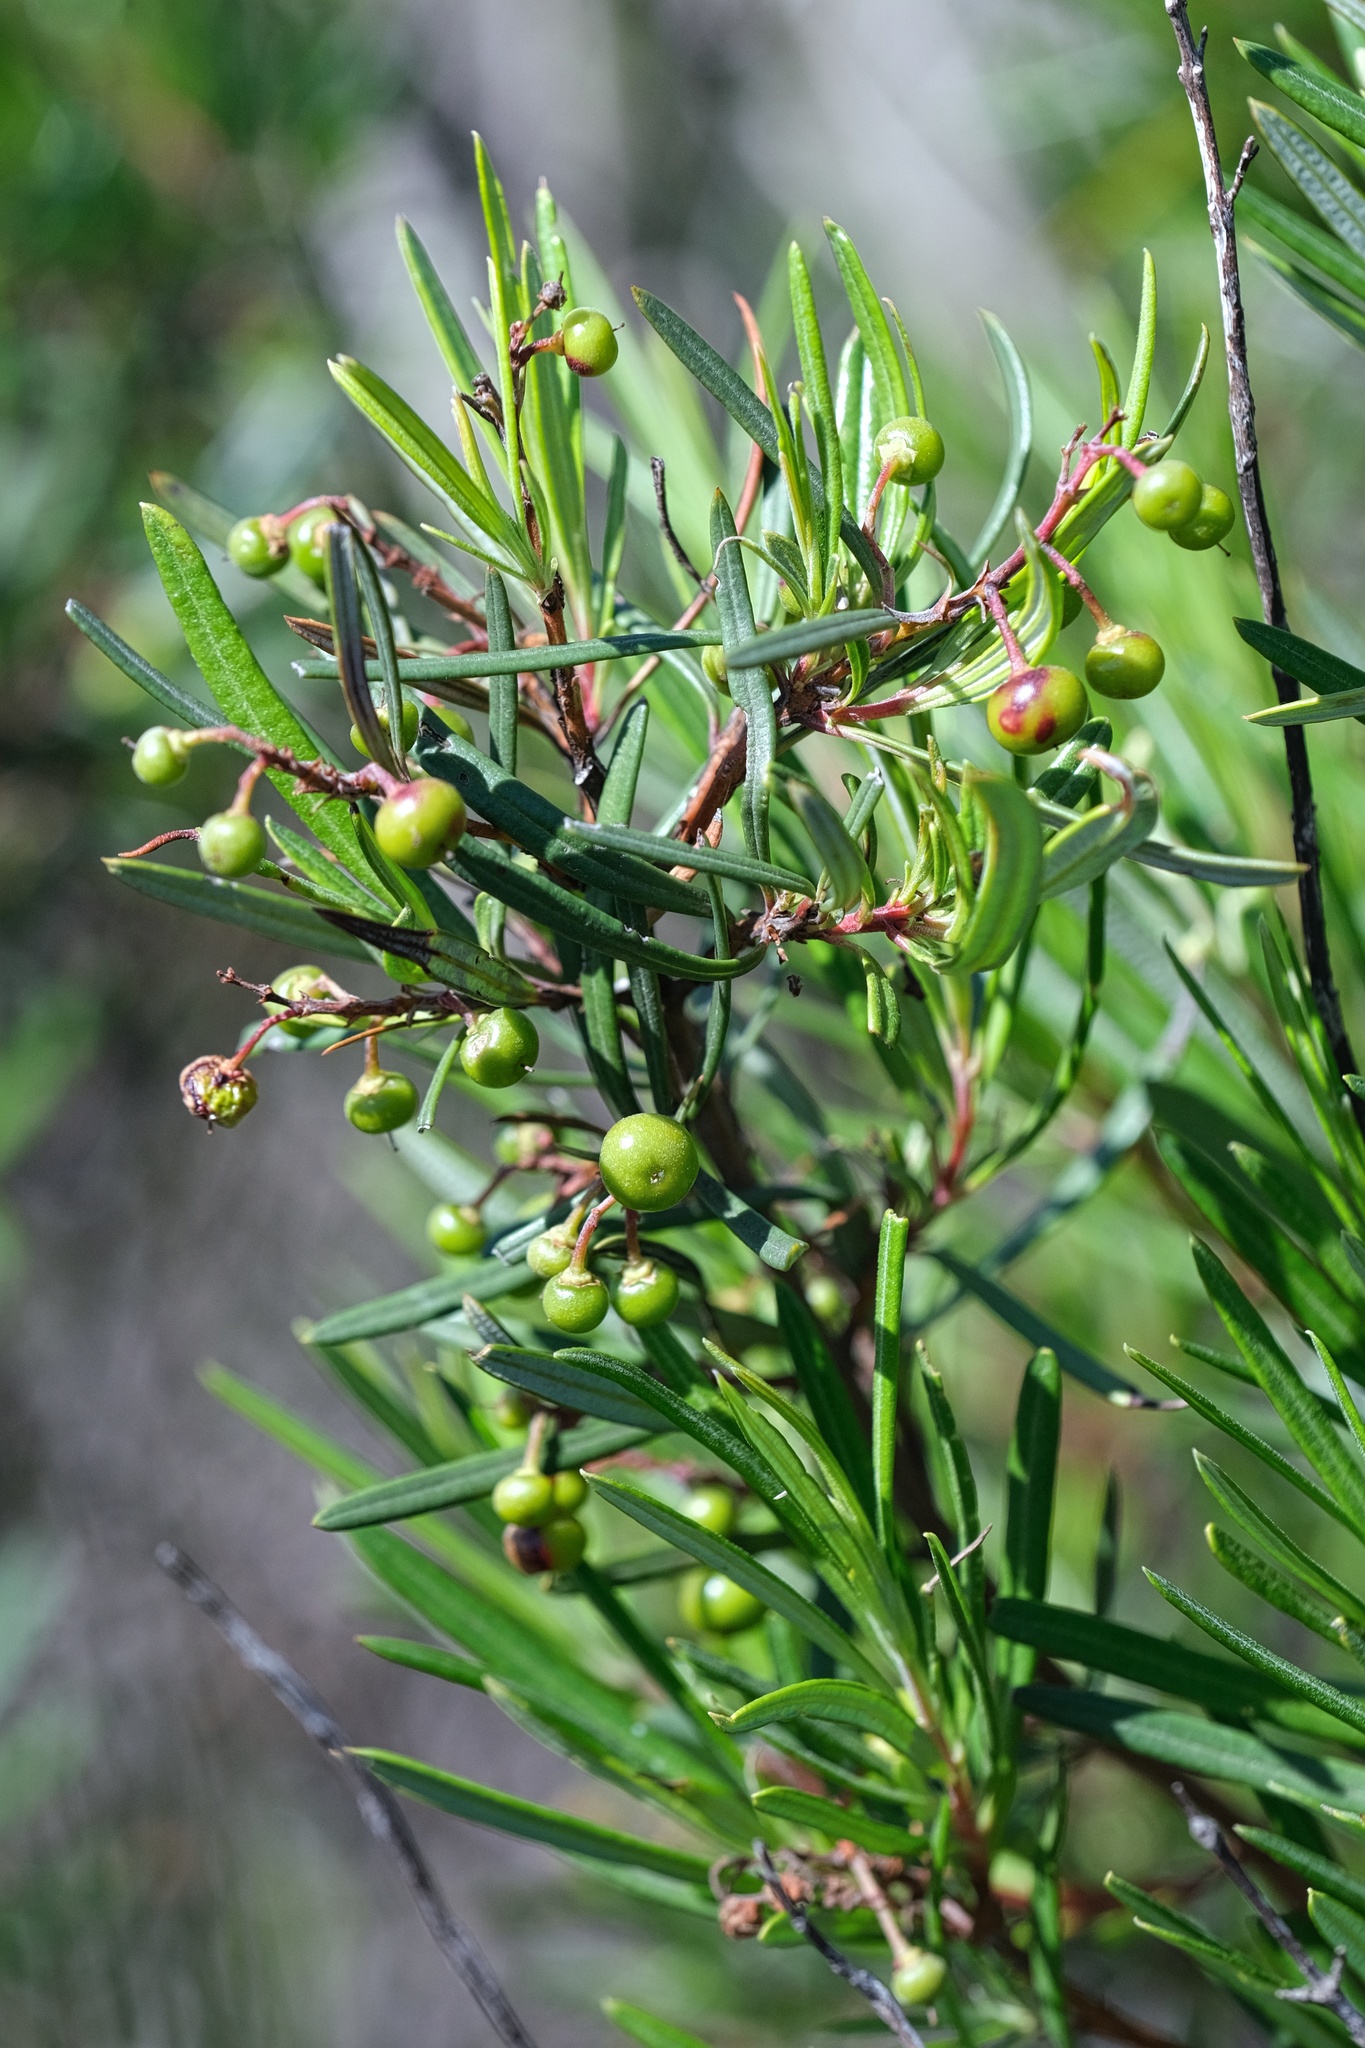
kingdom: Plantae
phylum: Tracheophyta
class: Magnoliopsida
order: Ericales
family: Ericaceae
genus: Ornithostaphylos
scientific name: Ornithostaphylos oppositifolia
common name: Baja california birdbush
